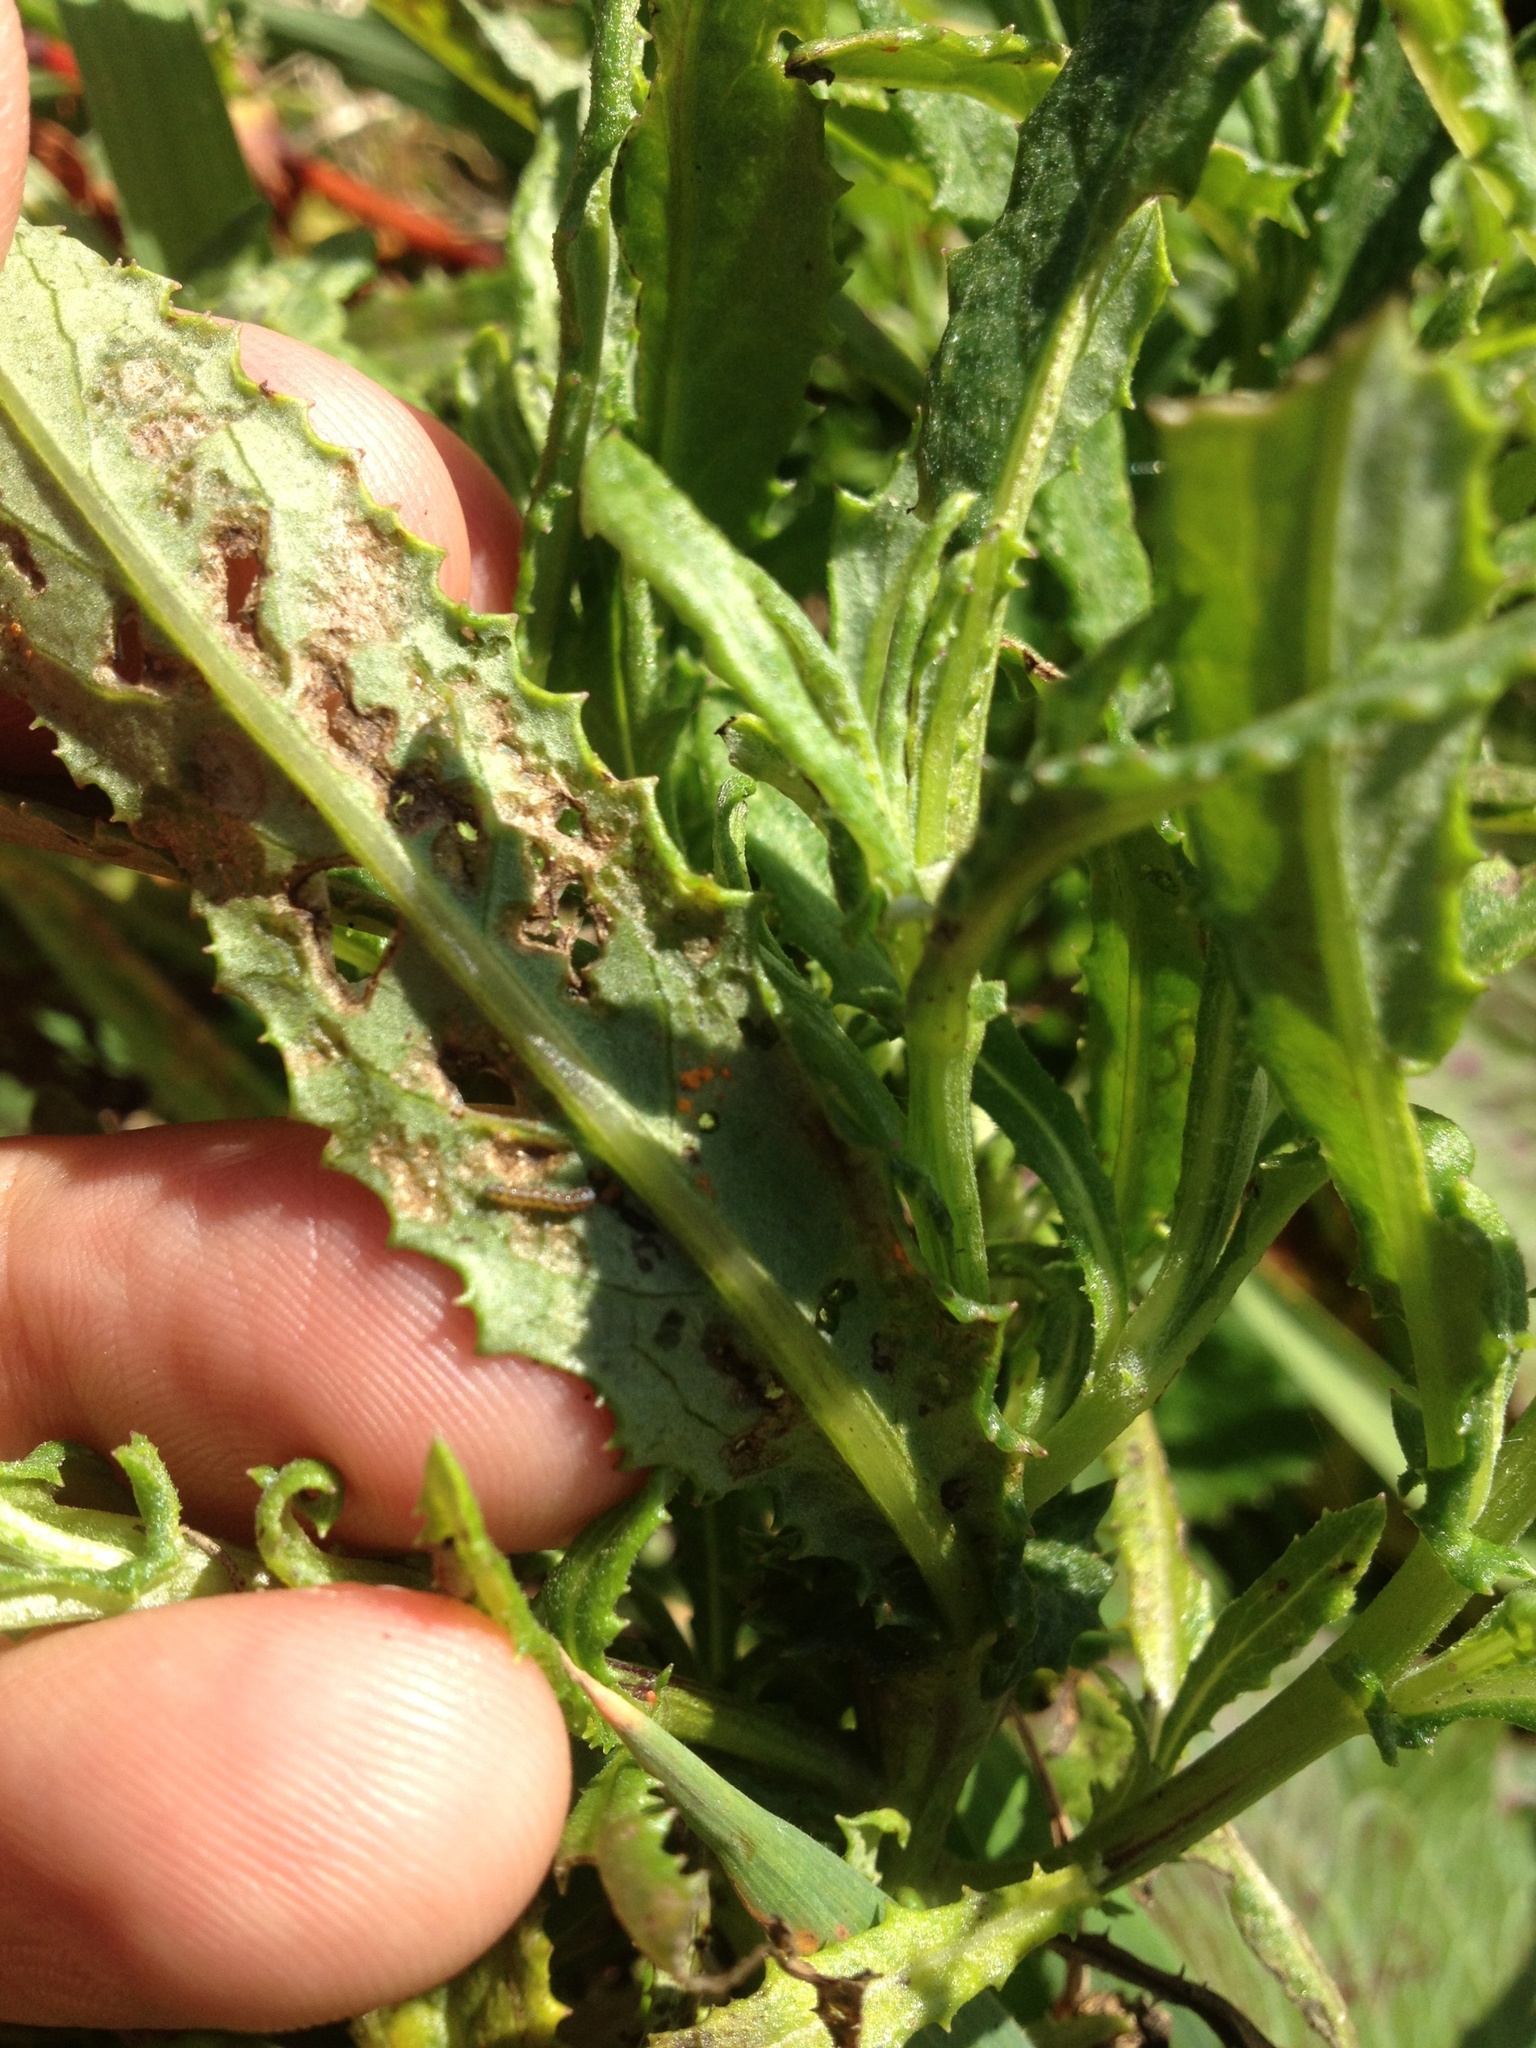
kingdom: Animalia
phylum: Arthropoda
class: Insecta
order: Lepidoptera
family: Erebidae
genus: Nyctemera
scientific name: Nyctemera annulatum
